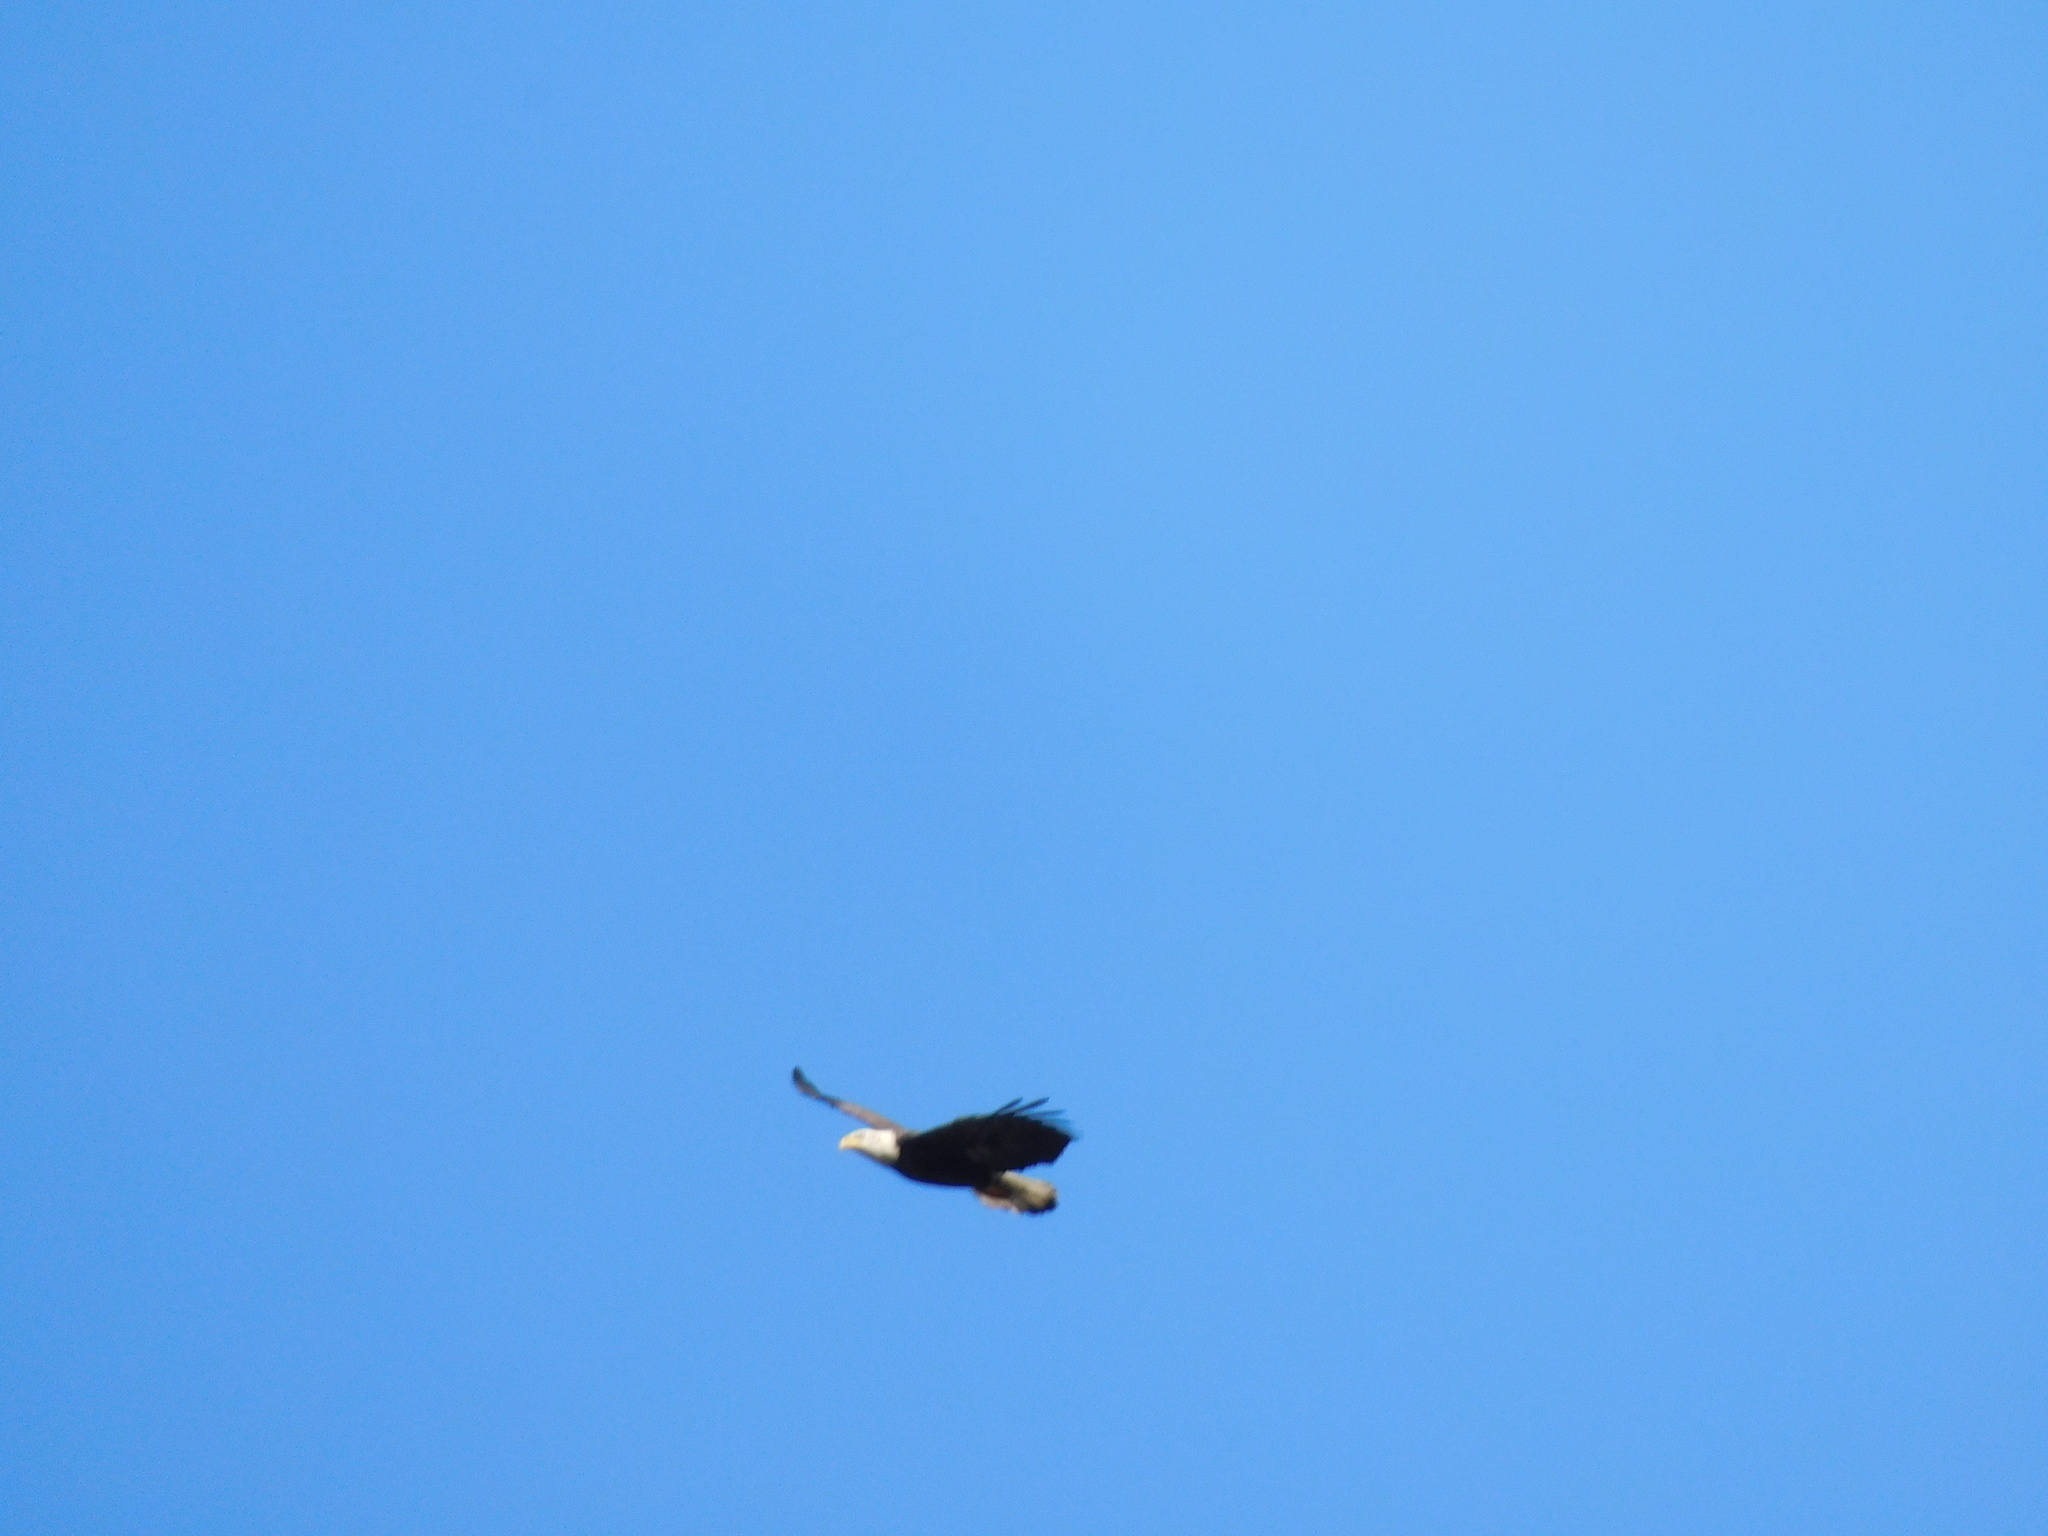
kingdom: Animalia
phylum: Chordata
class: Aves
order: Accipitriformes
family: Accipitridae
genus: Haliaeetus
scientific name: Haliaeetus leucocephalus
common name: Bald eagle
